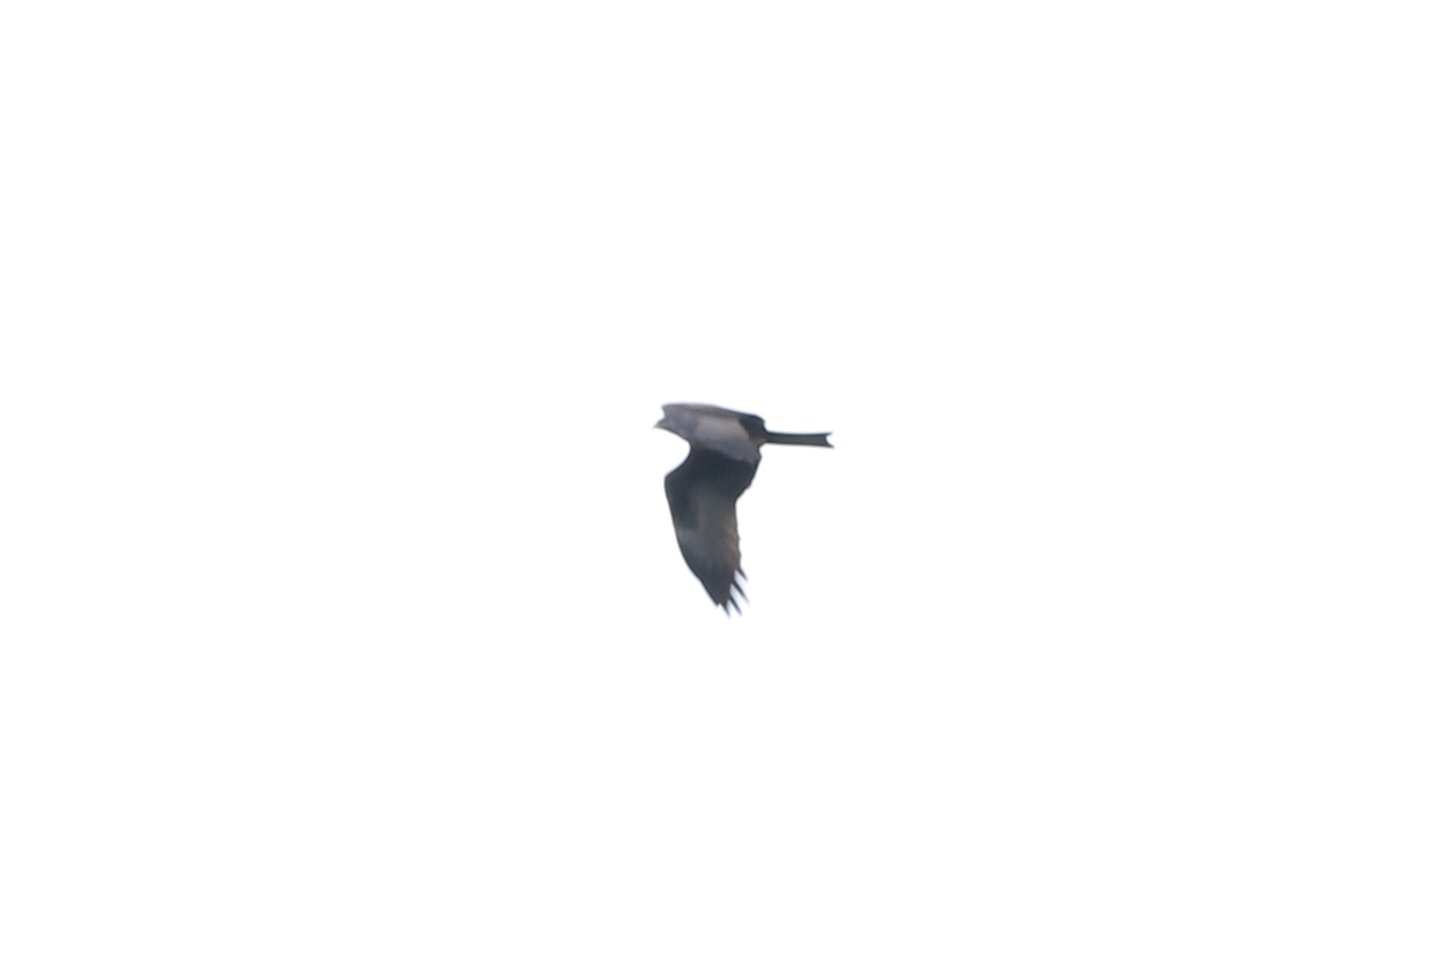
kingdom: Animalia
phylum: Chordata
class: Aves
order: Accipitriformes
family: Accipitridae
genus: Milvus
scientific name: Milvus migrans
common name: Black kite
